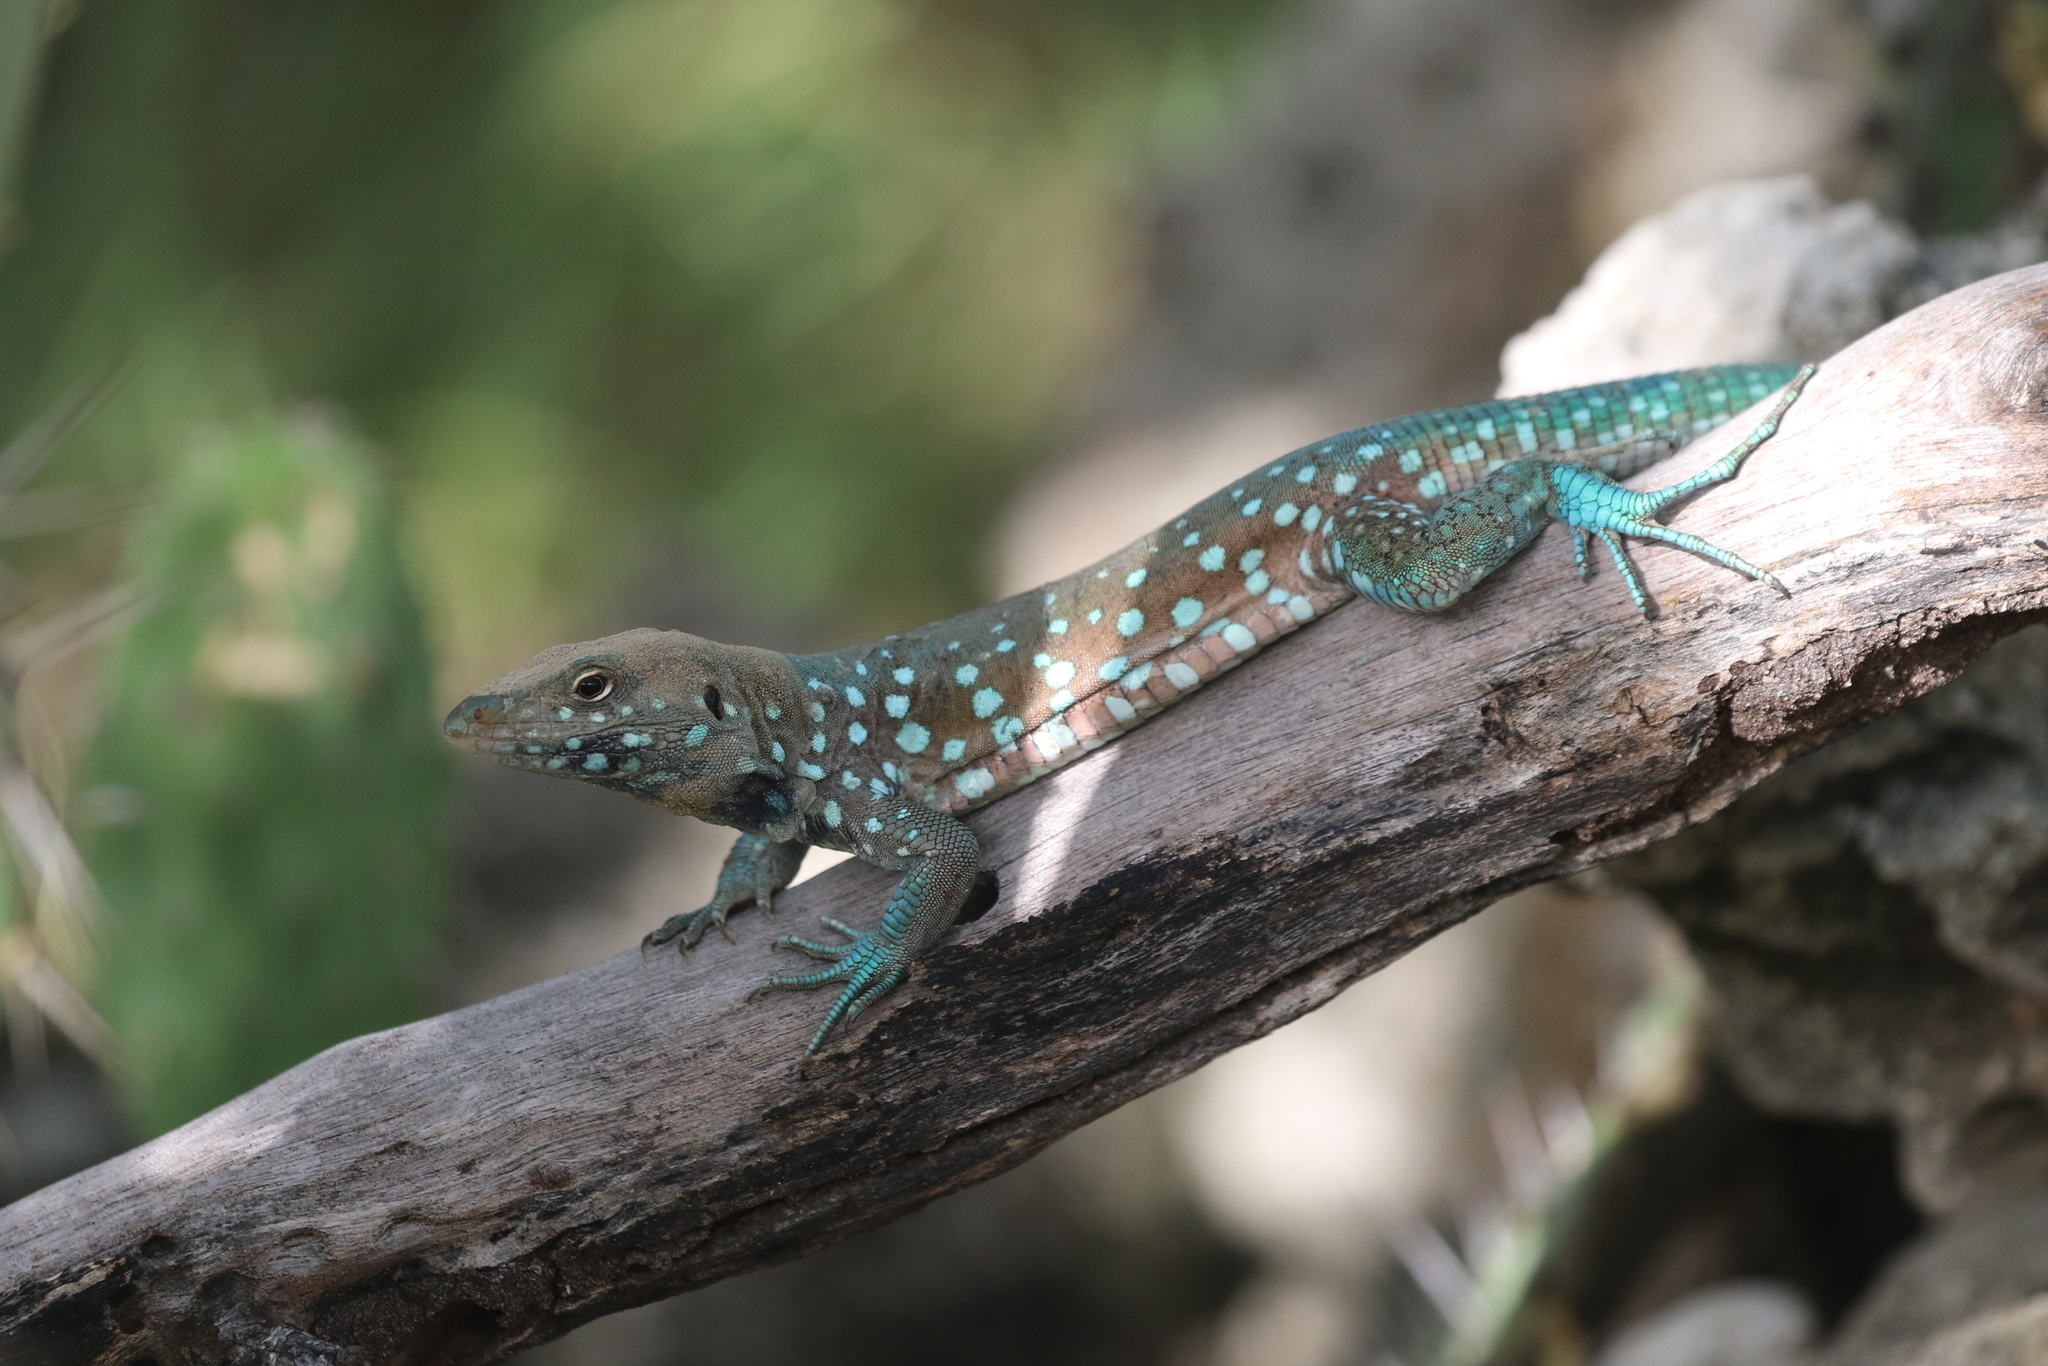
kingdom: Animalia
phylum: Chordata
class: Squamata
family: Teiidae
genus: Cnemidophorus
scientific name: Cnemidophorus arubensis
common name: Aruba whiptail
